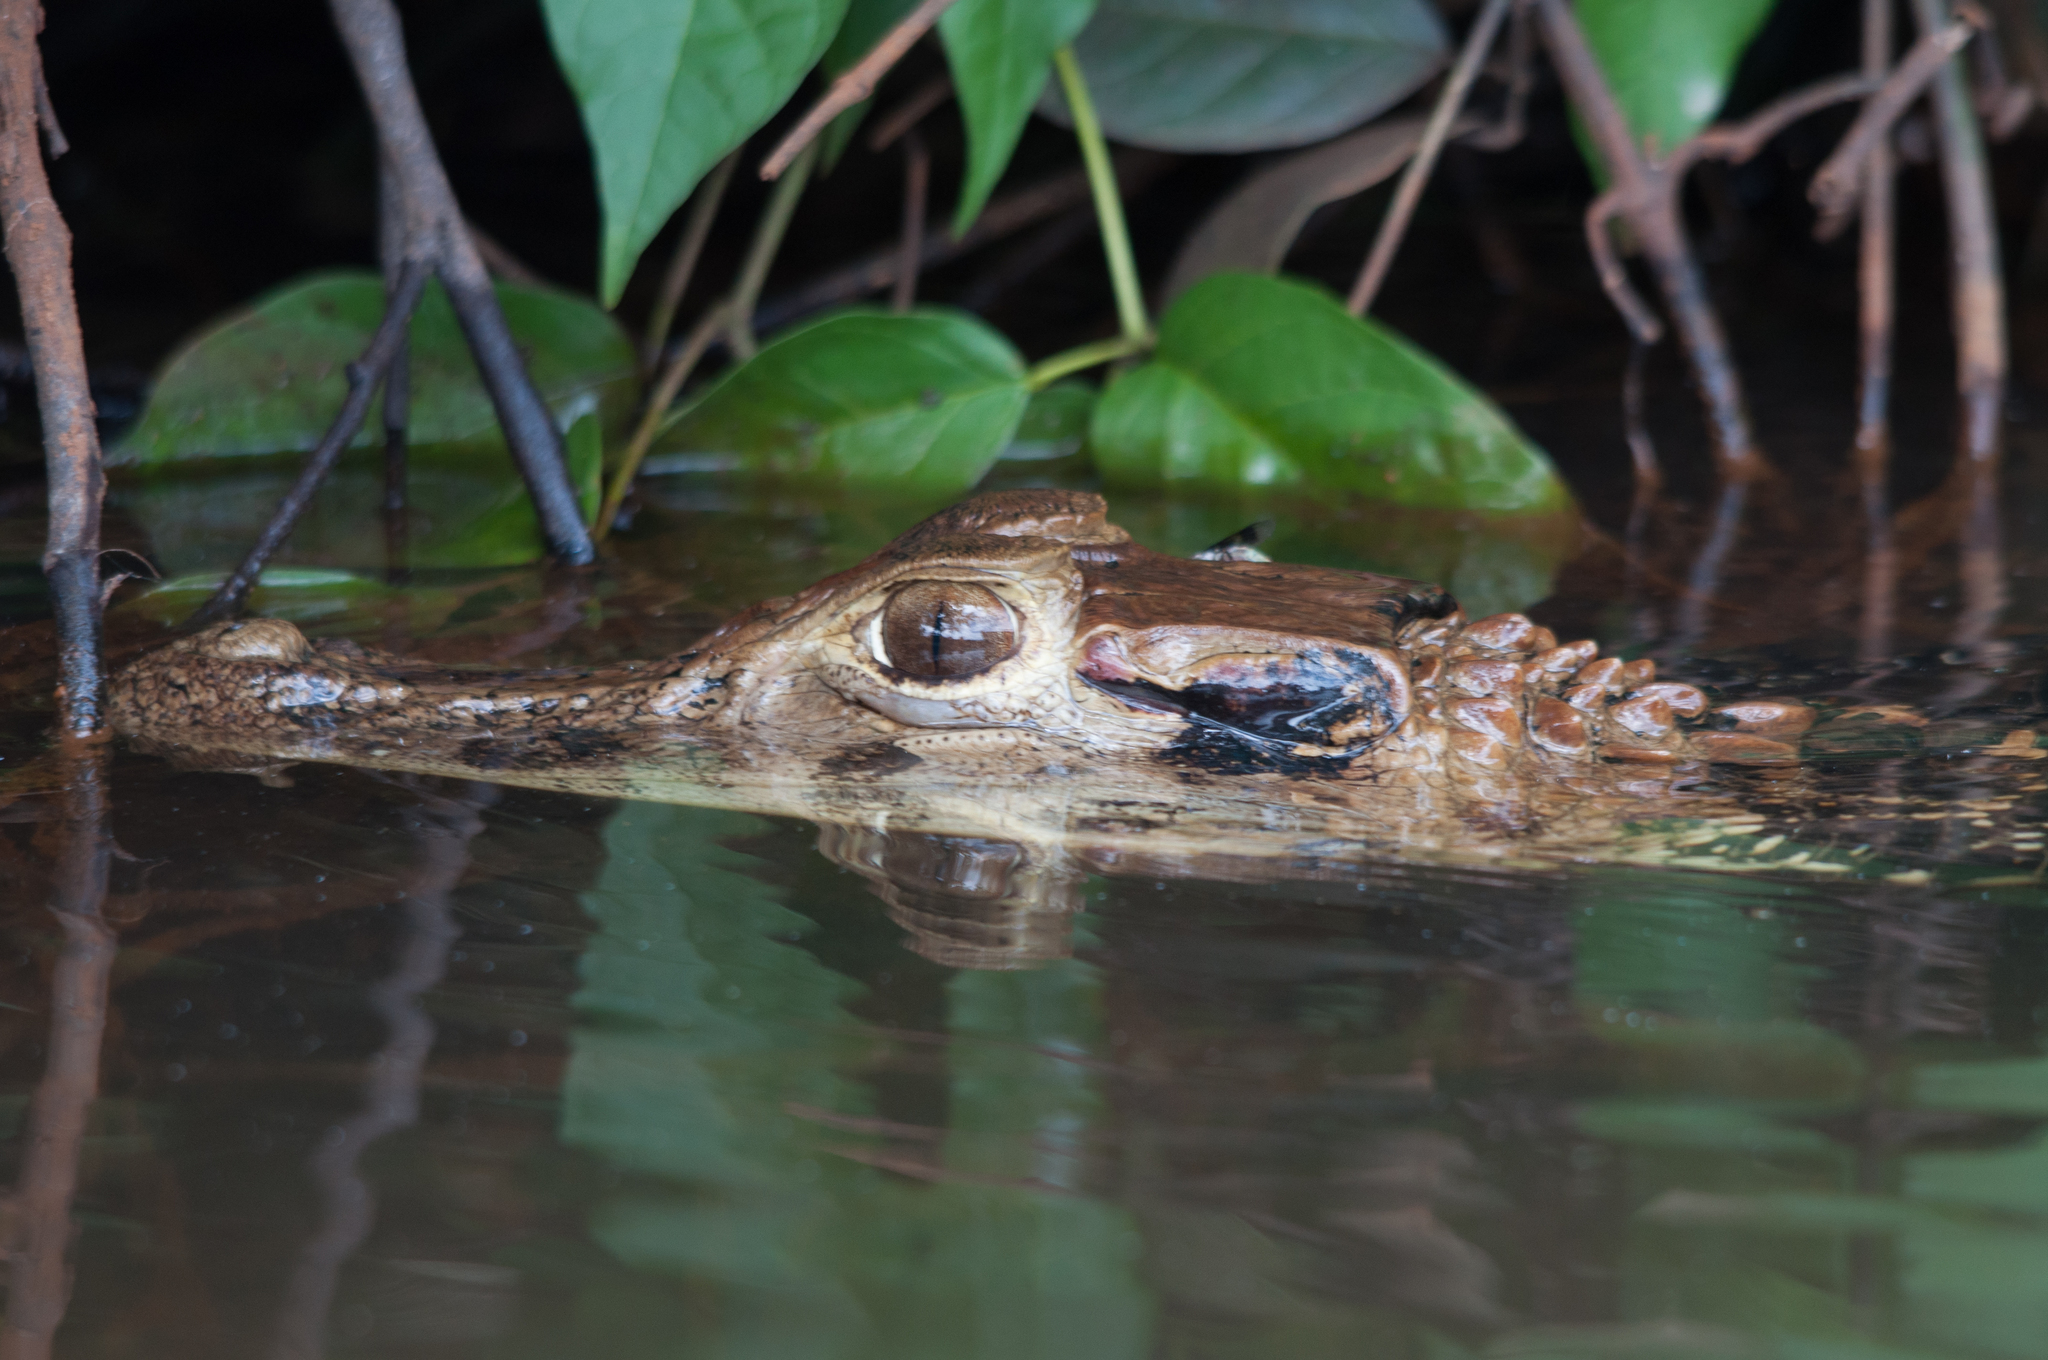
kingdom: Animalia
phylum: Chordata
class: Crocodylia
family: Alligatoridae
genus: Melanosuchus
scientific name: Melanosuchus niger
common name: Black caiman
